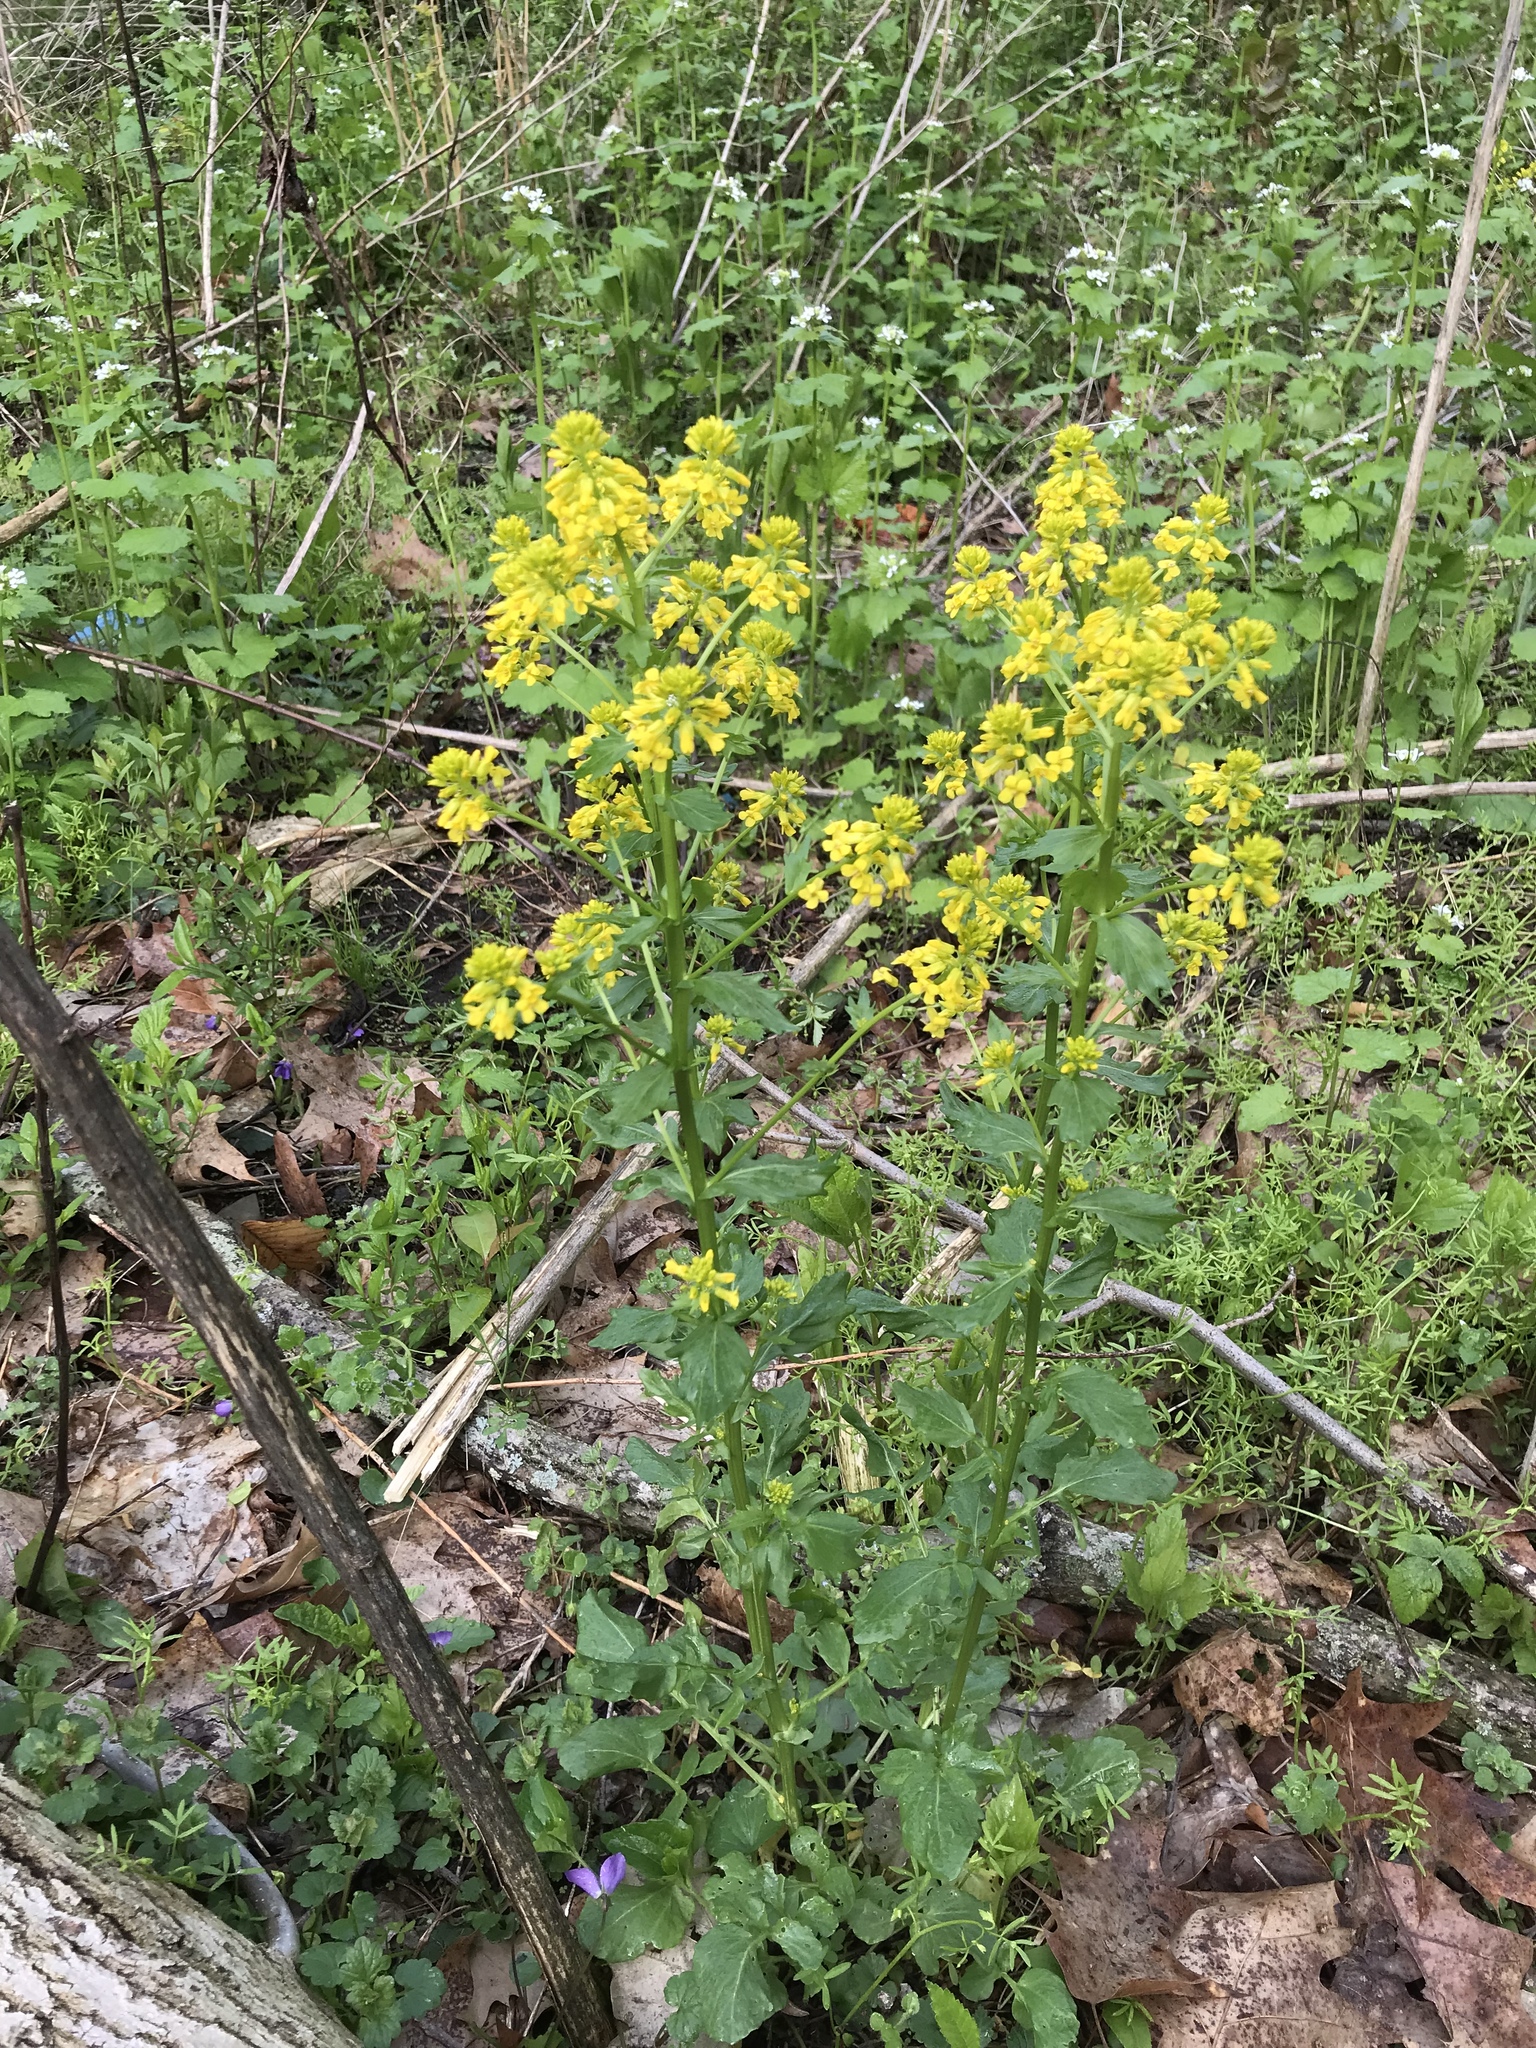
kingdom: Plantae
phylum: Tracheophyta
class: Magnoliopsida
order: Brassicales
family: Brassicaceae
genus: Barbarea
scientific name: Barbarea vulgaris
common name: Cressy-greens
